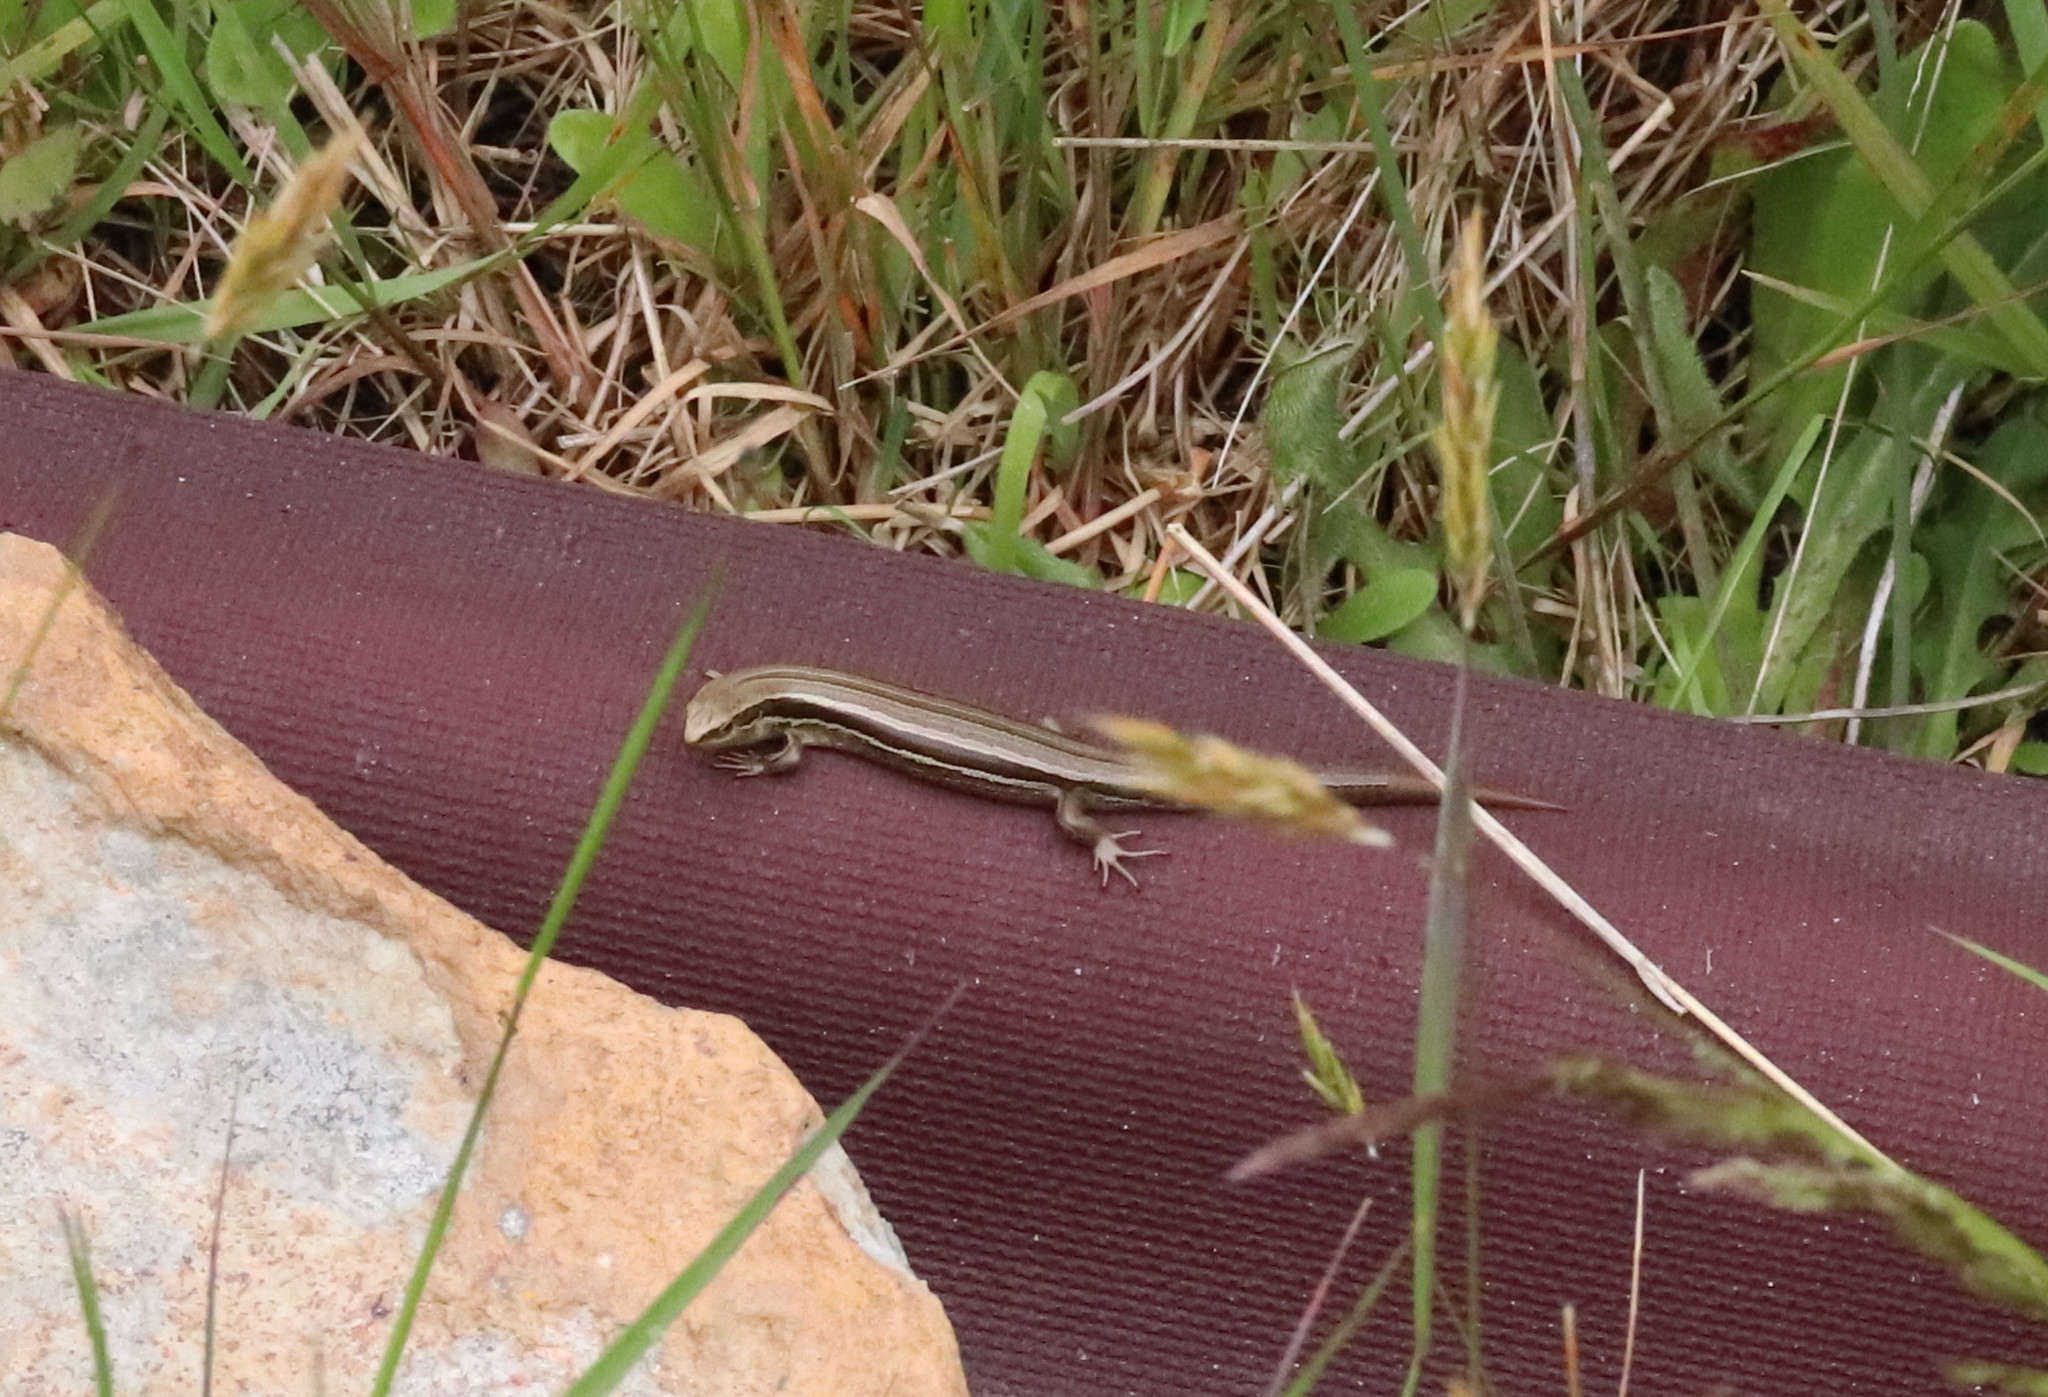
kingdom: Animalia
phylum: Chordata
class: Squamata
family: Scincidae
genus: Oligosoma
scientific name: Oligosoma polychroma
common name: Common new zealand skink
